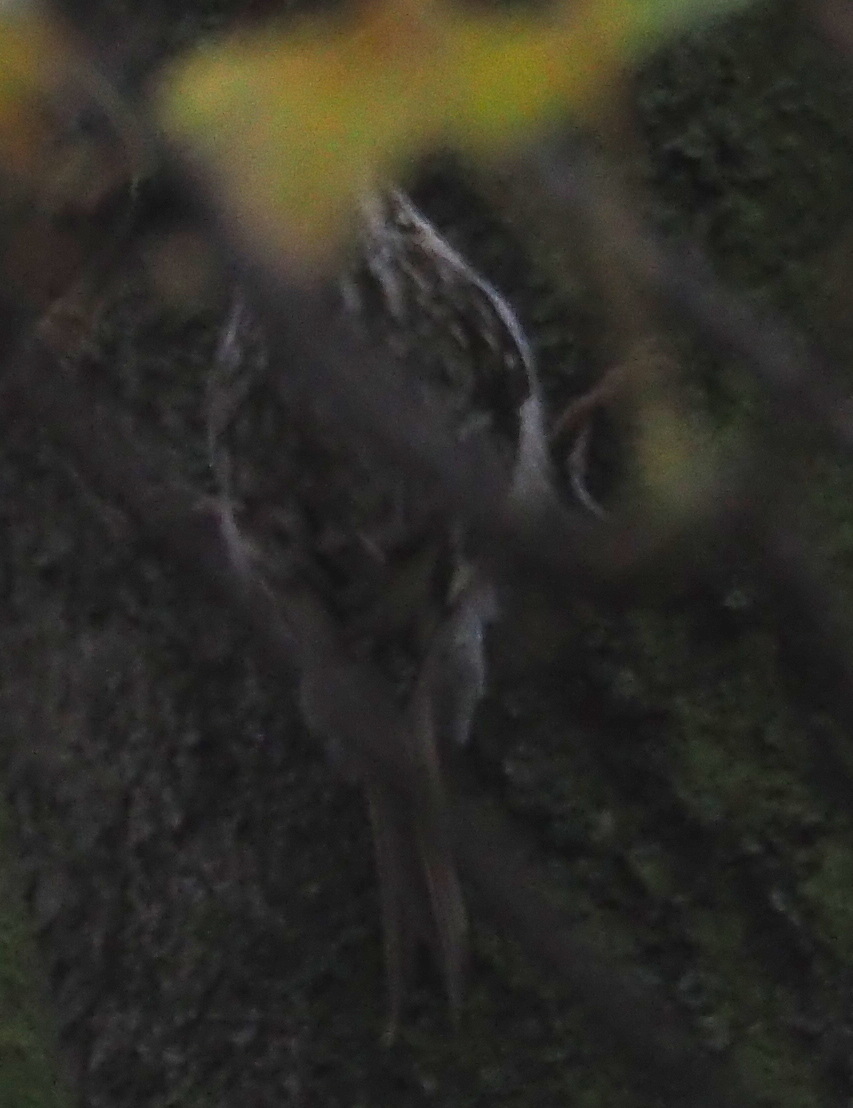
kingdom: Animalia
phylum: Chordata
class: Aves
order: Passeriformes
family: Certhiidae
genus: Certhia
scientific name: Certhia familiaris
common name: Eurasian treecreeper
